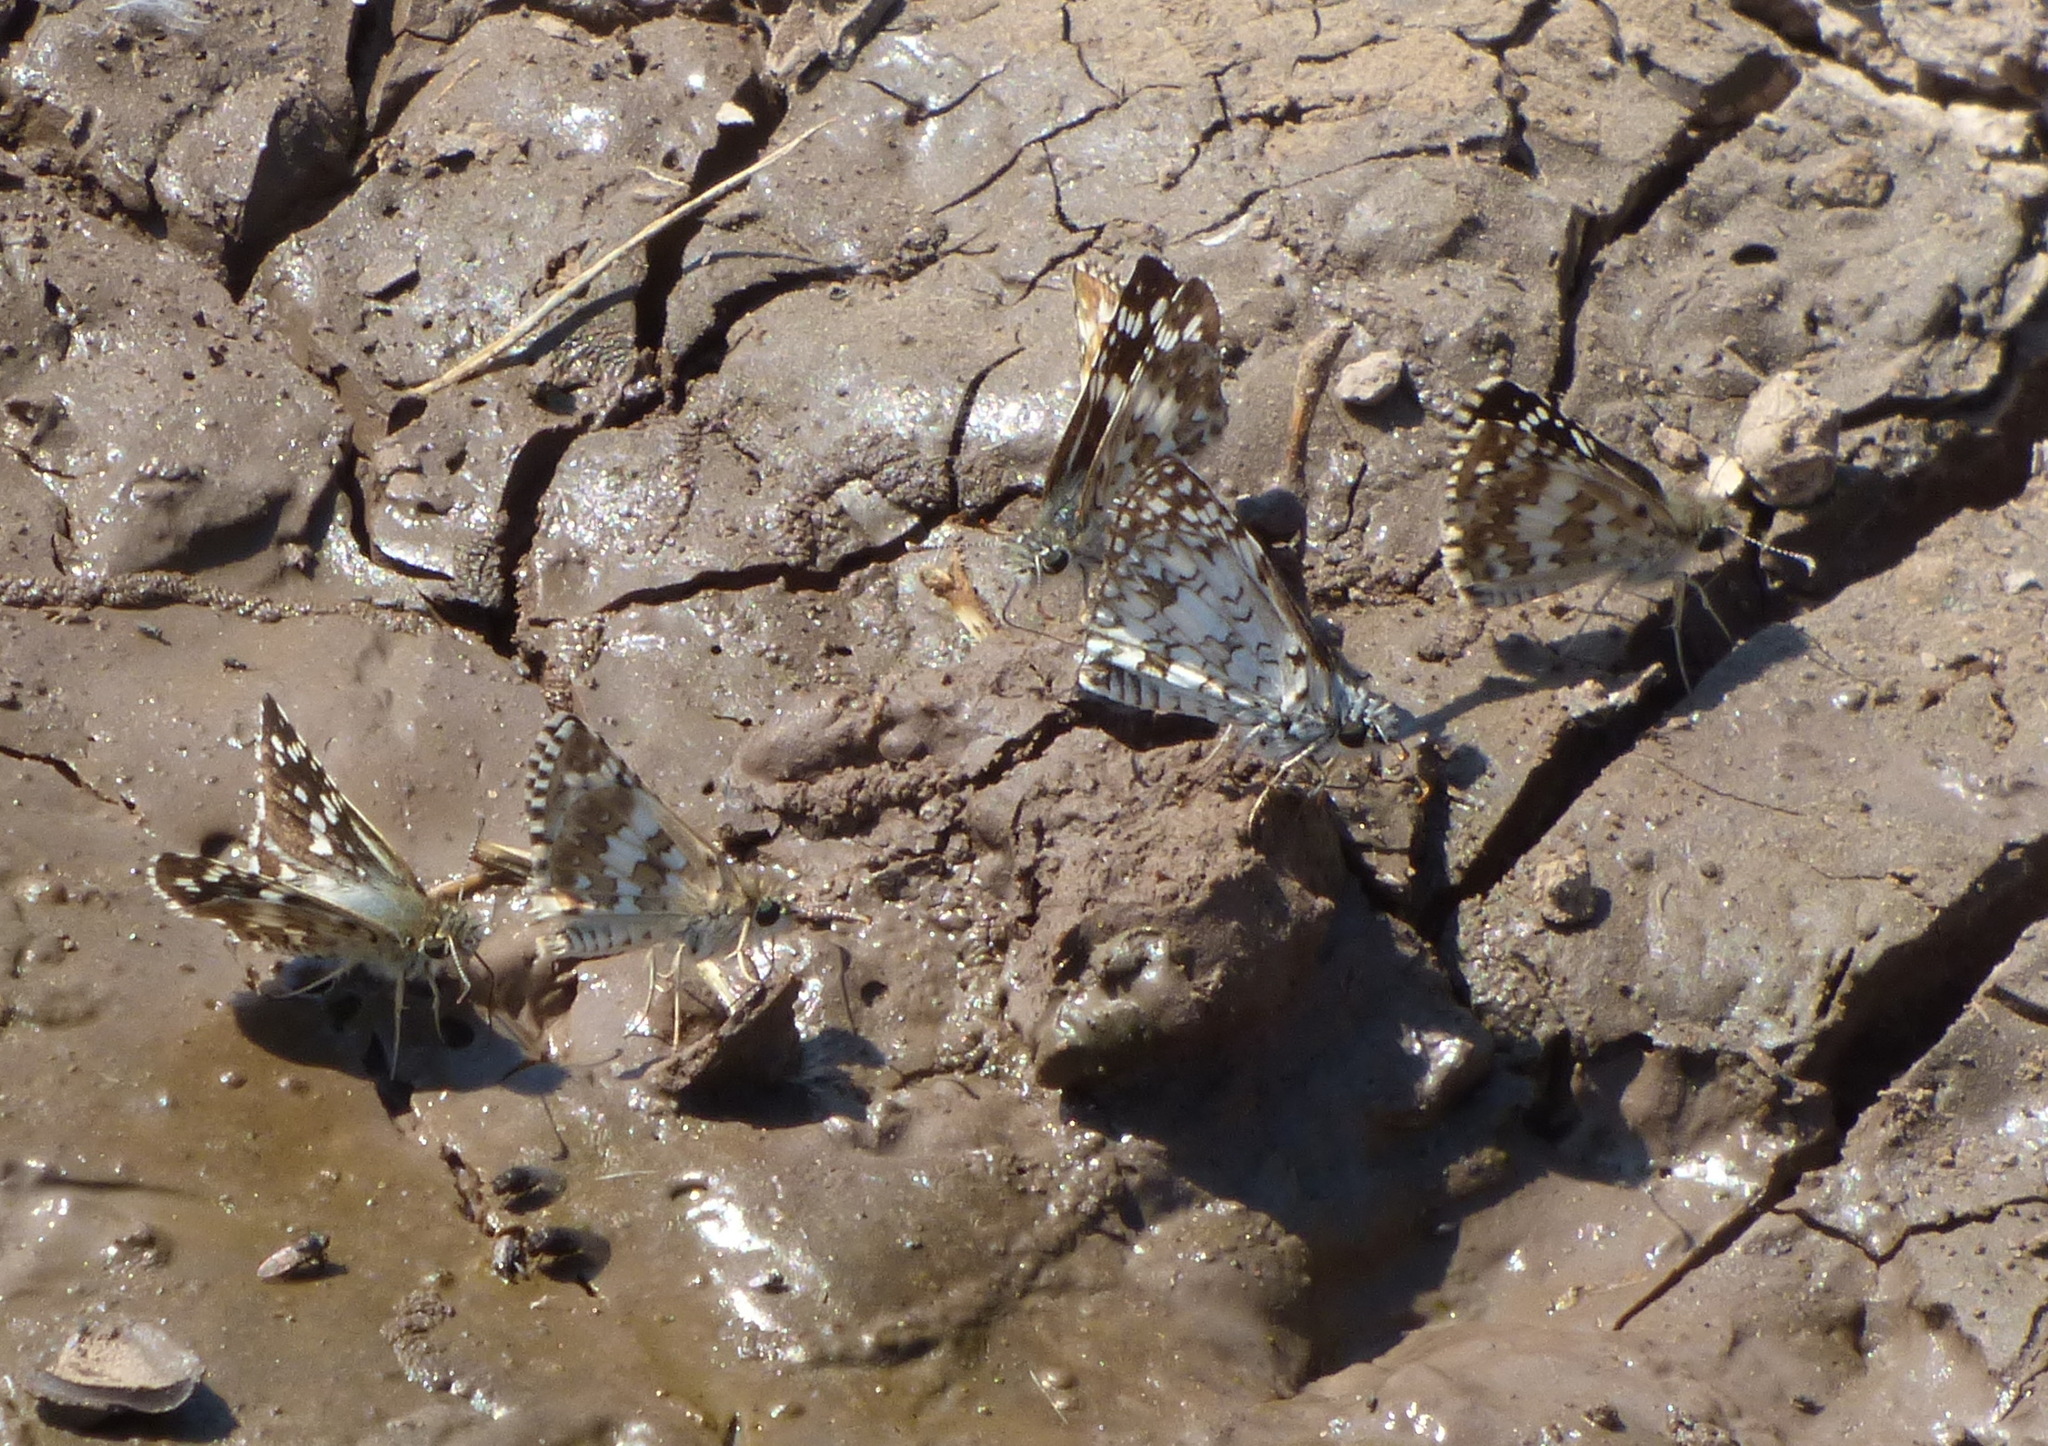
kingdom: Animalia
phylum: Arthropoda
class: Insecta
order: Lepidoptera
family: Hesperiidae
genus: Burnsius
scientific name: Burnsius orcynoides
